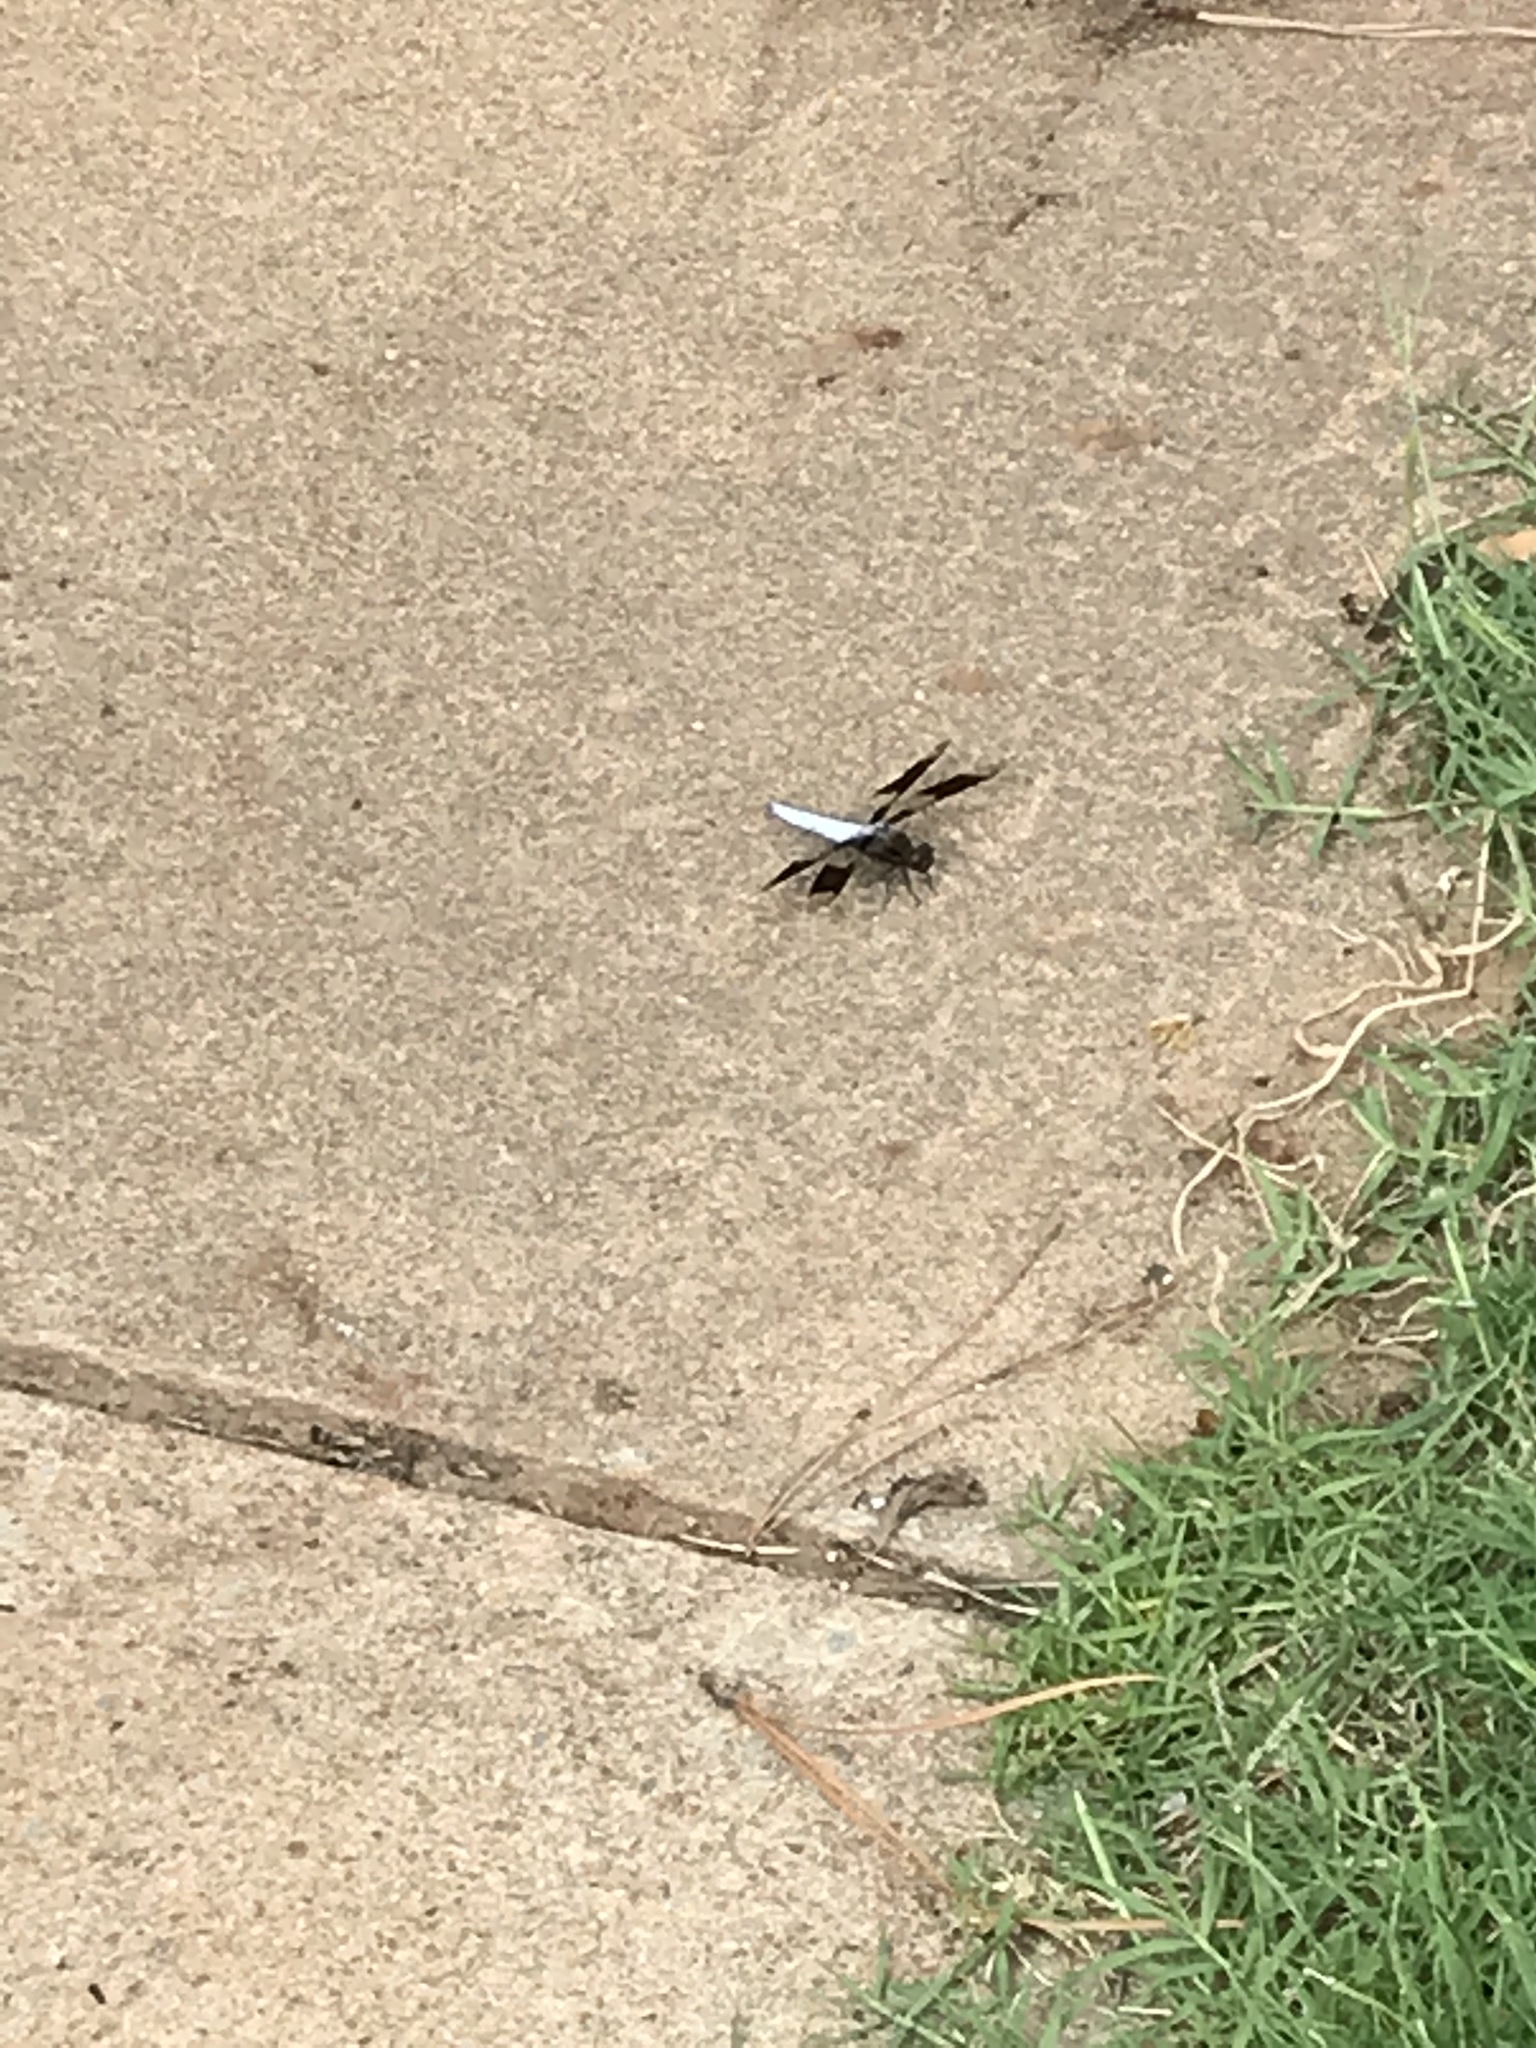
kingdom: Animalia
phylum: Arthropoda
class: Insecta
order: Odonata
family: Libellulidae
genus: Plathemis
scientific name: Plathemis lydia
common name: Common whitetail
